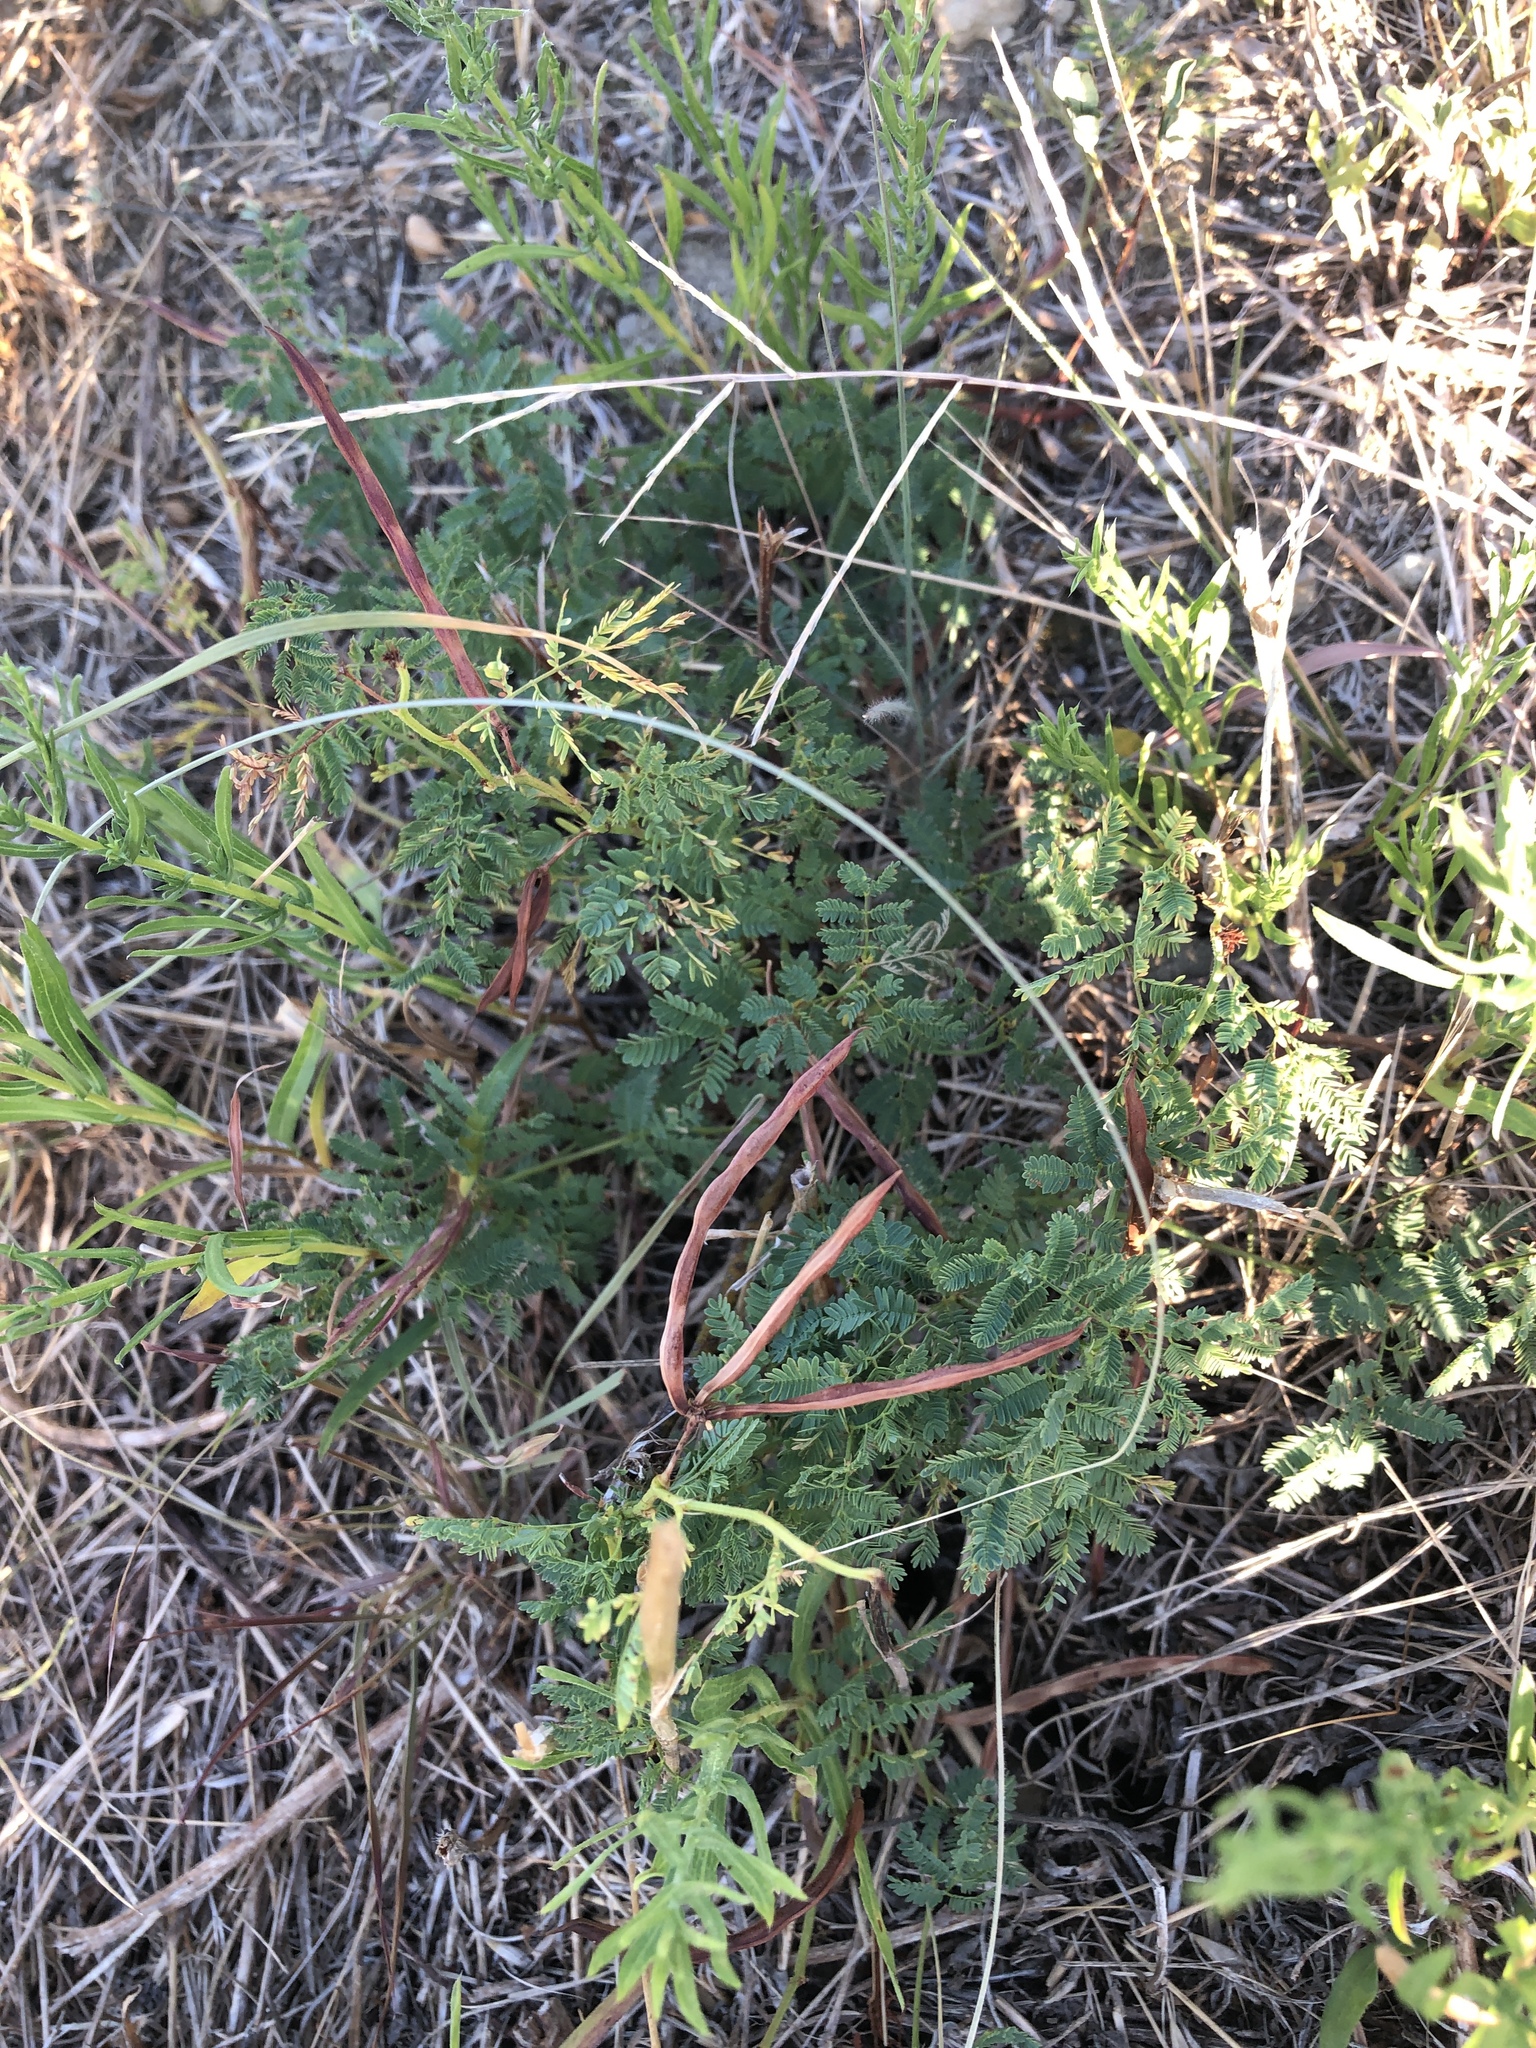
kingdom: Plantae
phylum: Tracheophyta
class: Magnoliopsida
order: Fabales
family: Fabaceae
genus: Desmanthus
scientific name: Desmanthus leptolobus
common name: Prairie-mimosa
